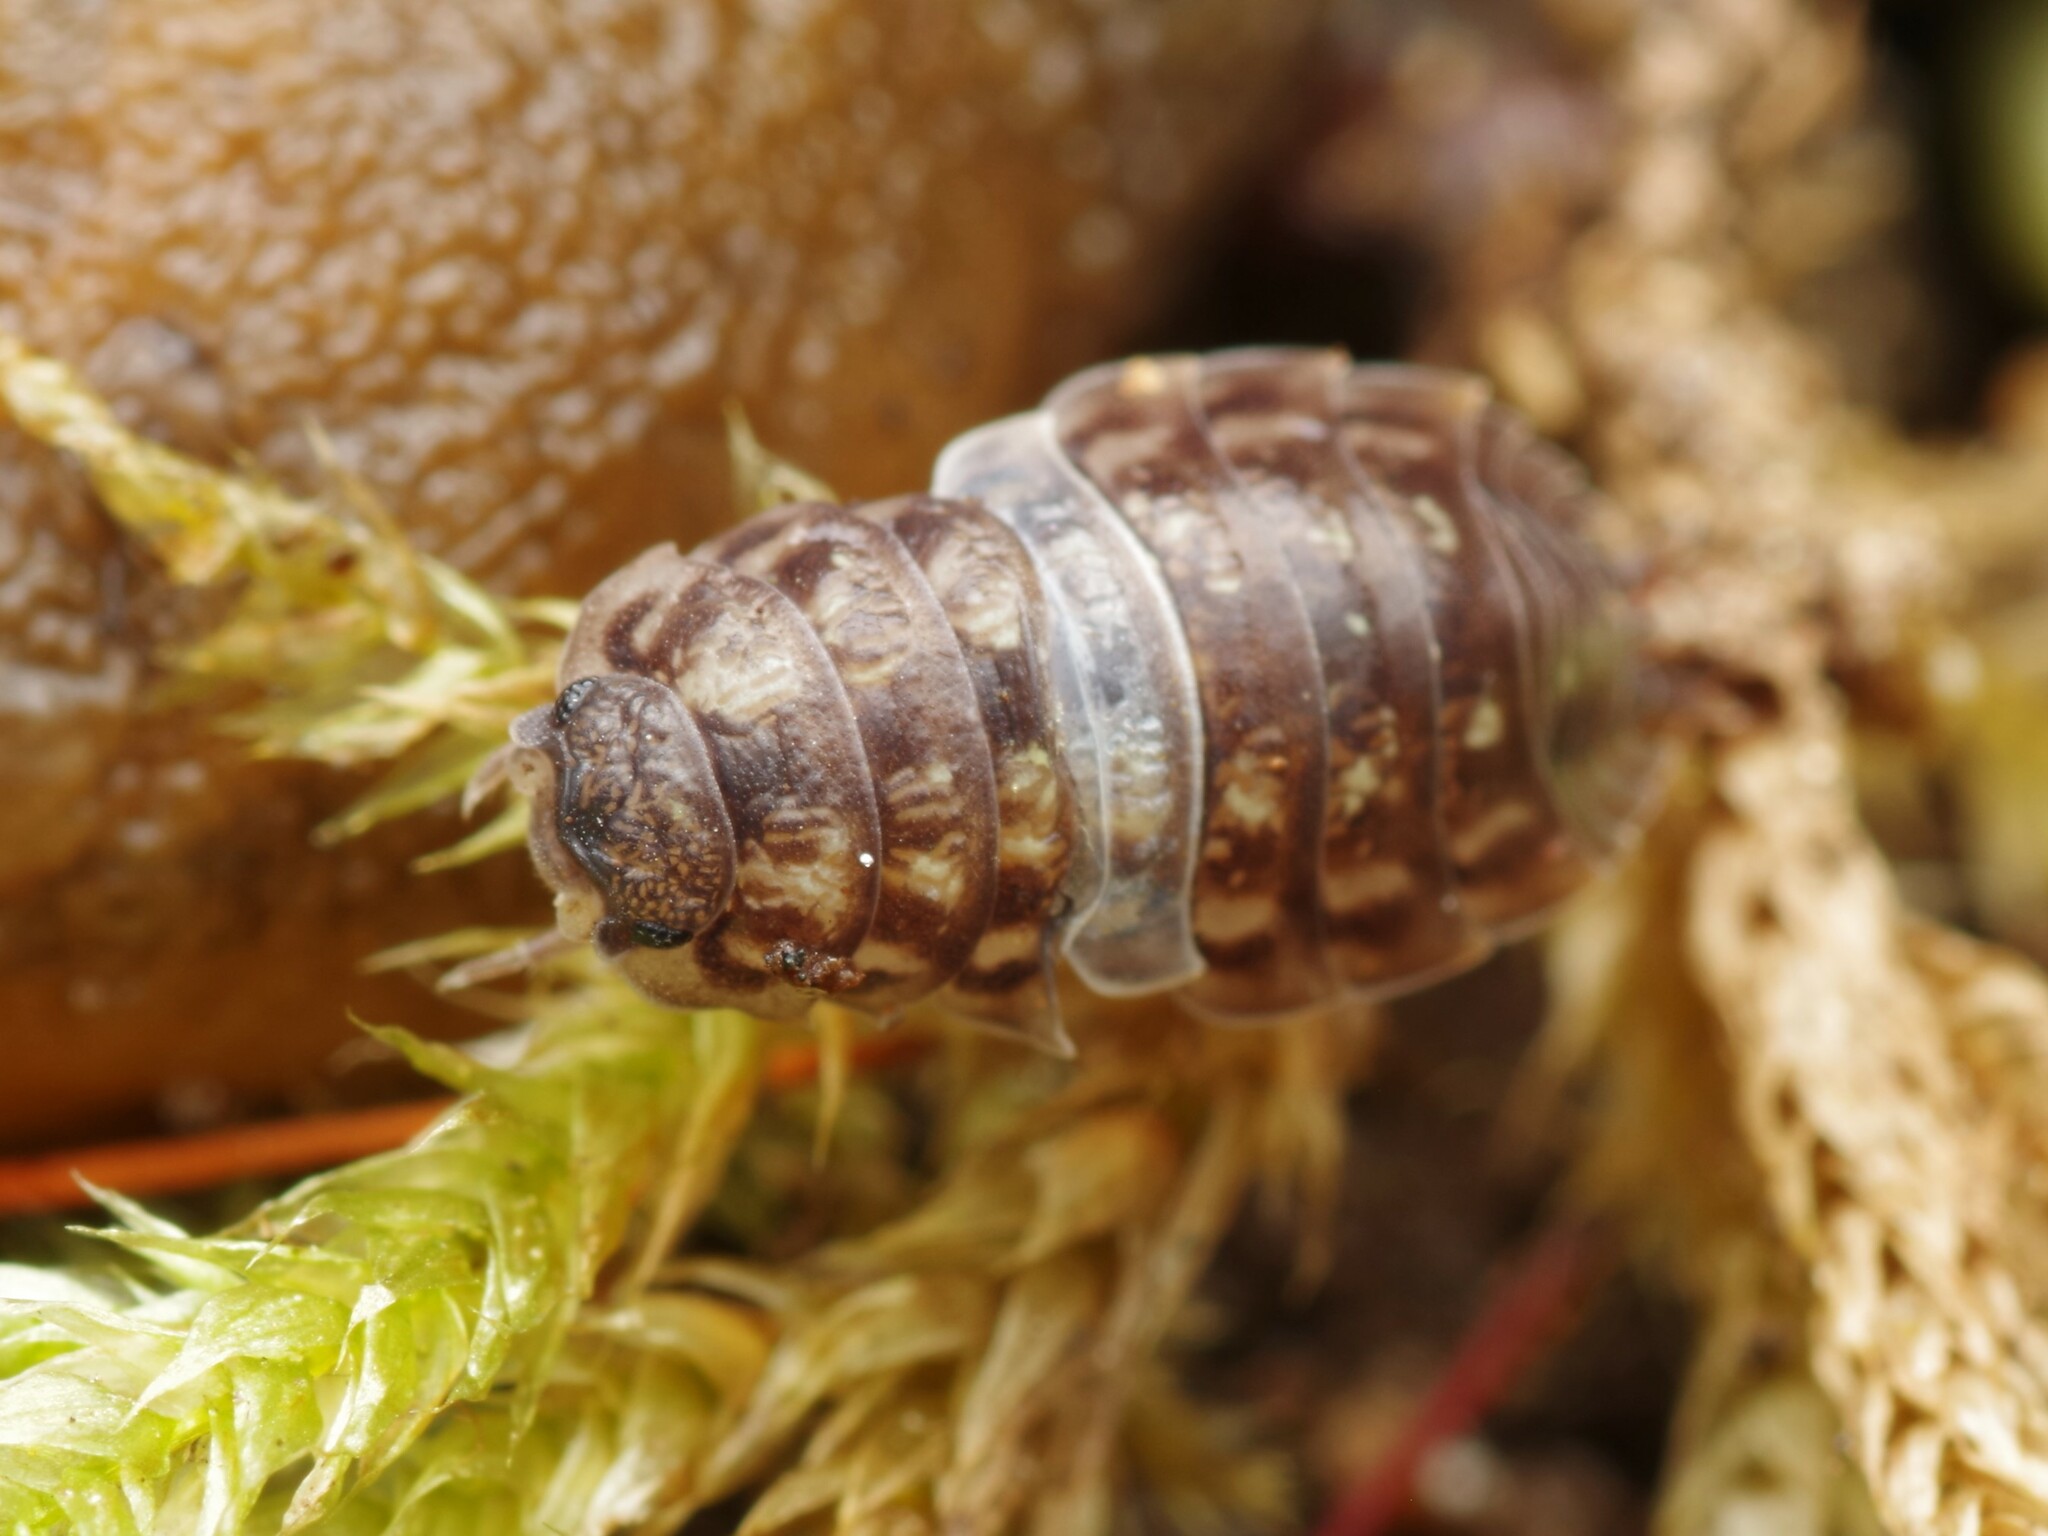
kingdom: Animalia
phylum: Arthropoda
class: Malacostraca
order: Isopoda
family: Oniscidae
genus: Oniscus
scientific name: Oniscus asellus
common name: Common shiny woodlouse
